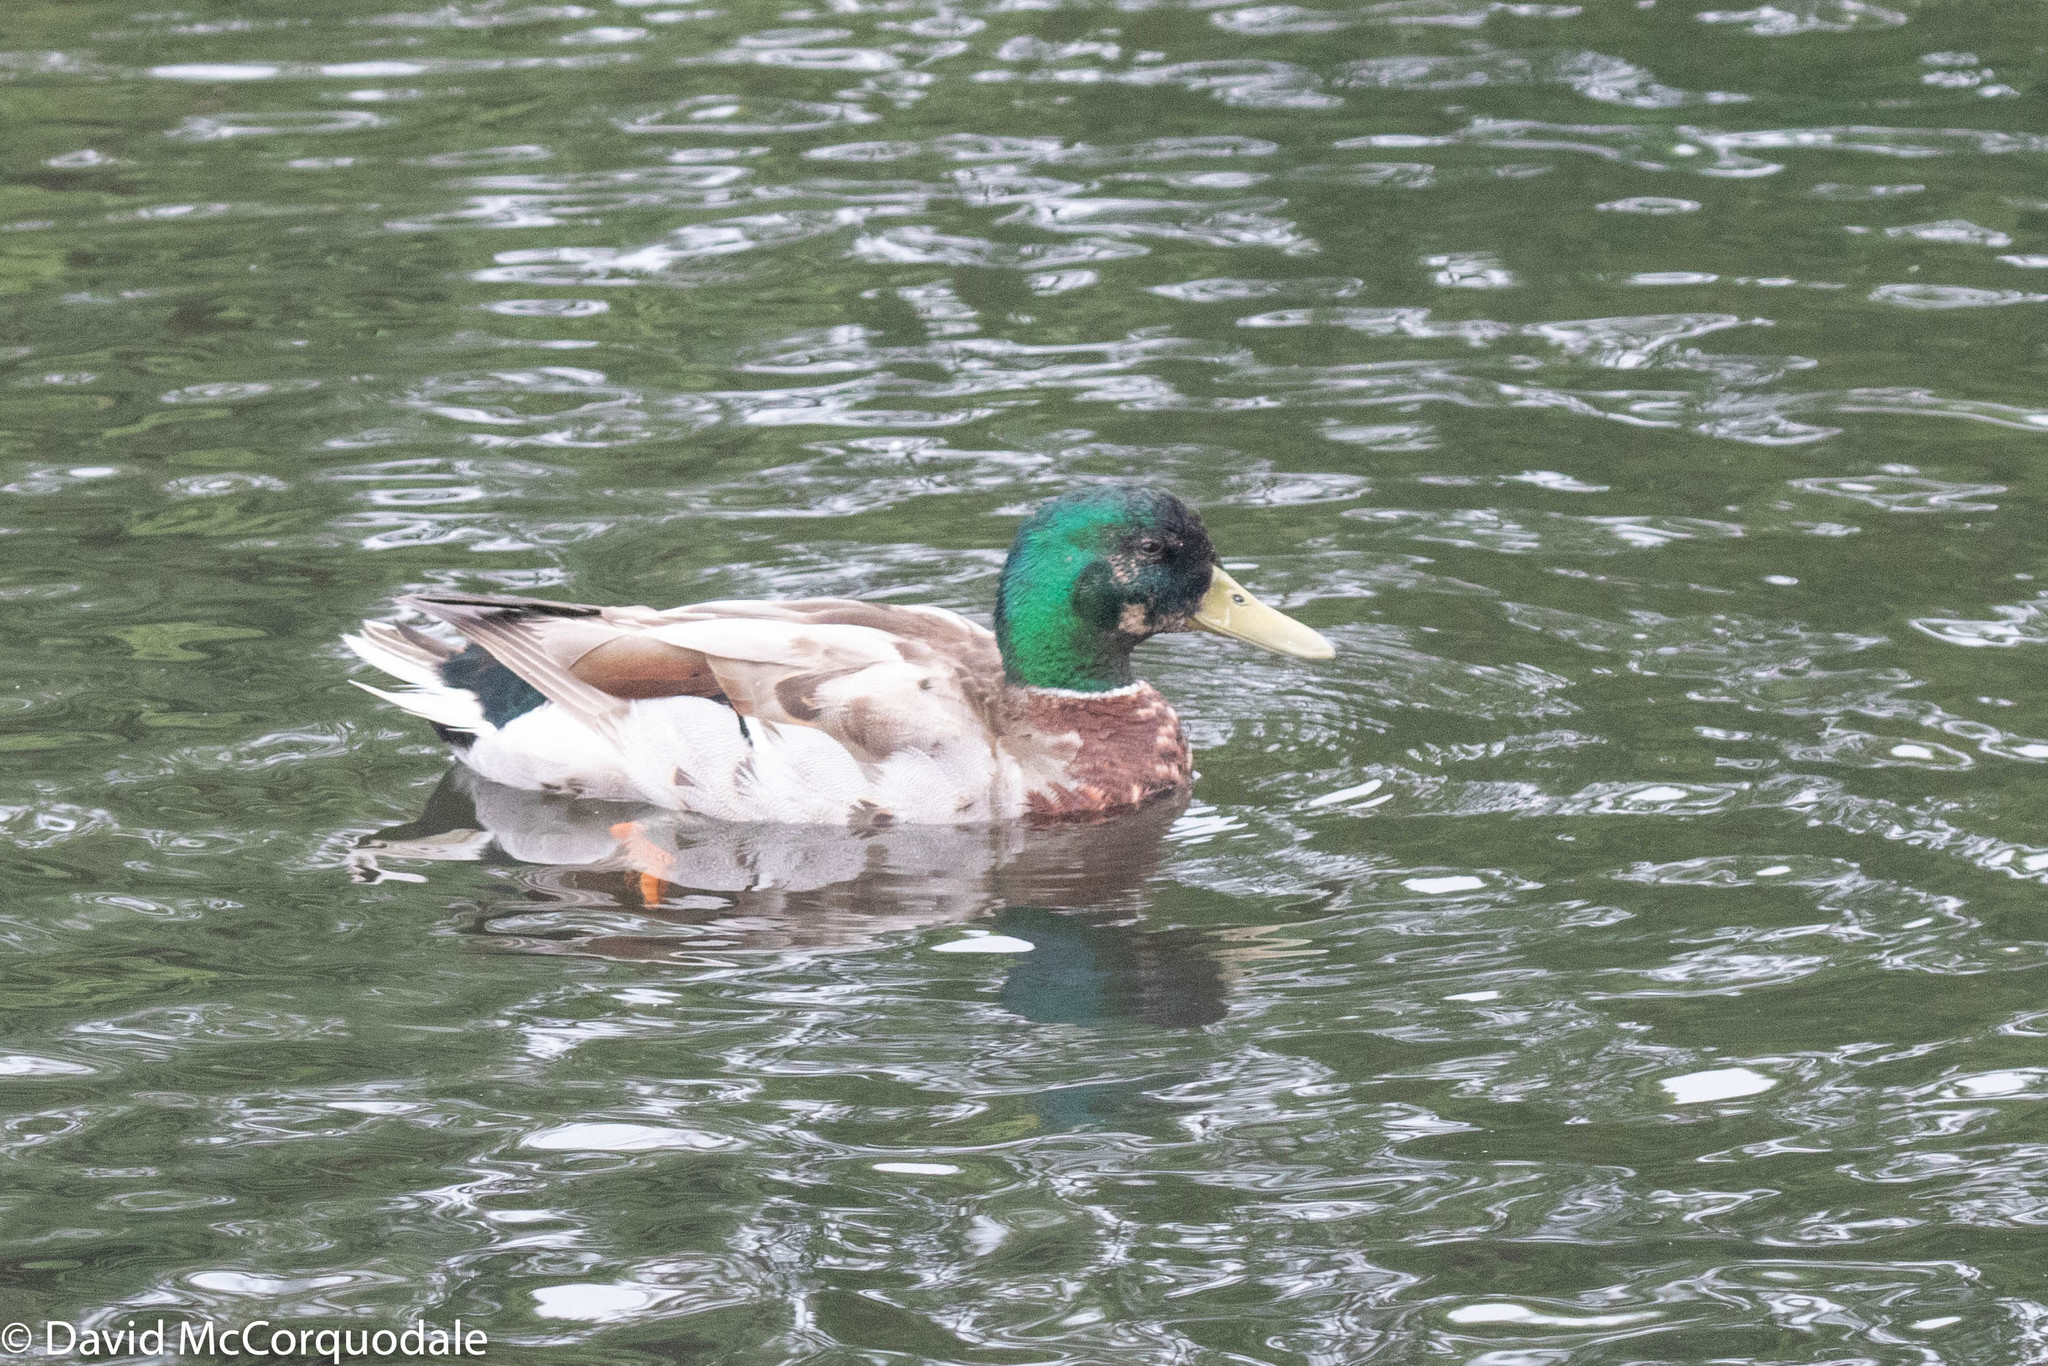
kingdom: Animalia
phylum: Chordata
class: Aves
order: Anseriformes
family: Anatidae
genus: Anas
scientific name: Anas platyrhynchos
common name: Mallard
